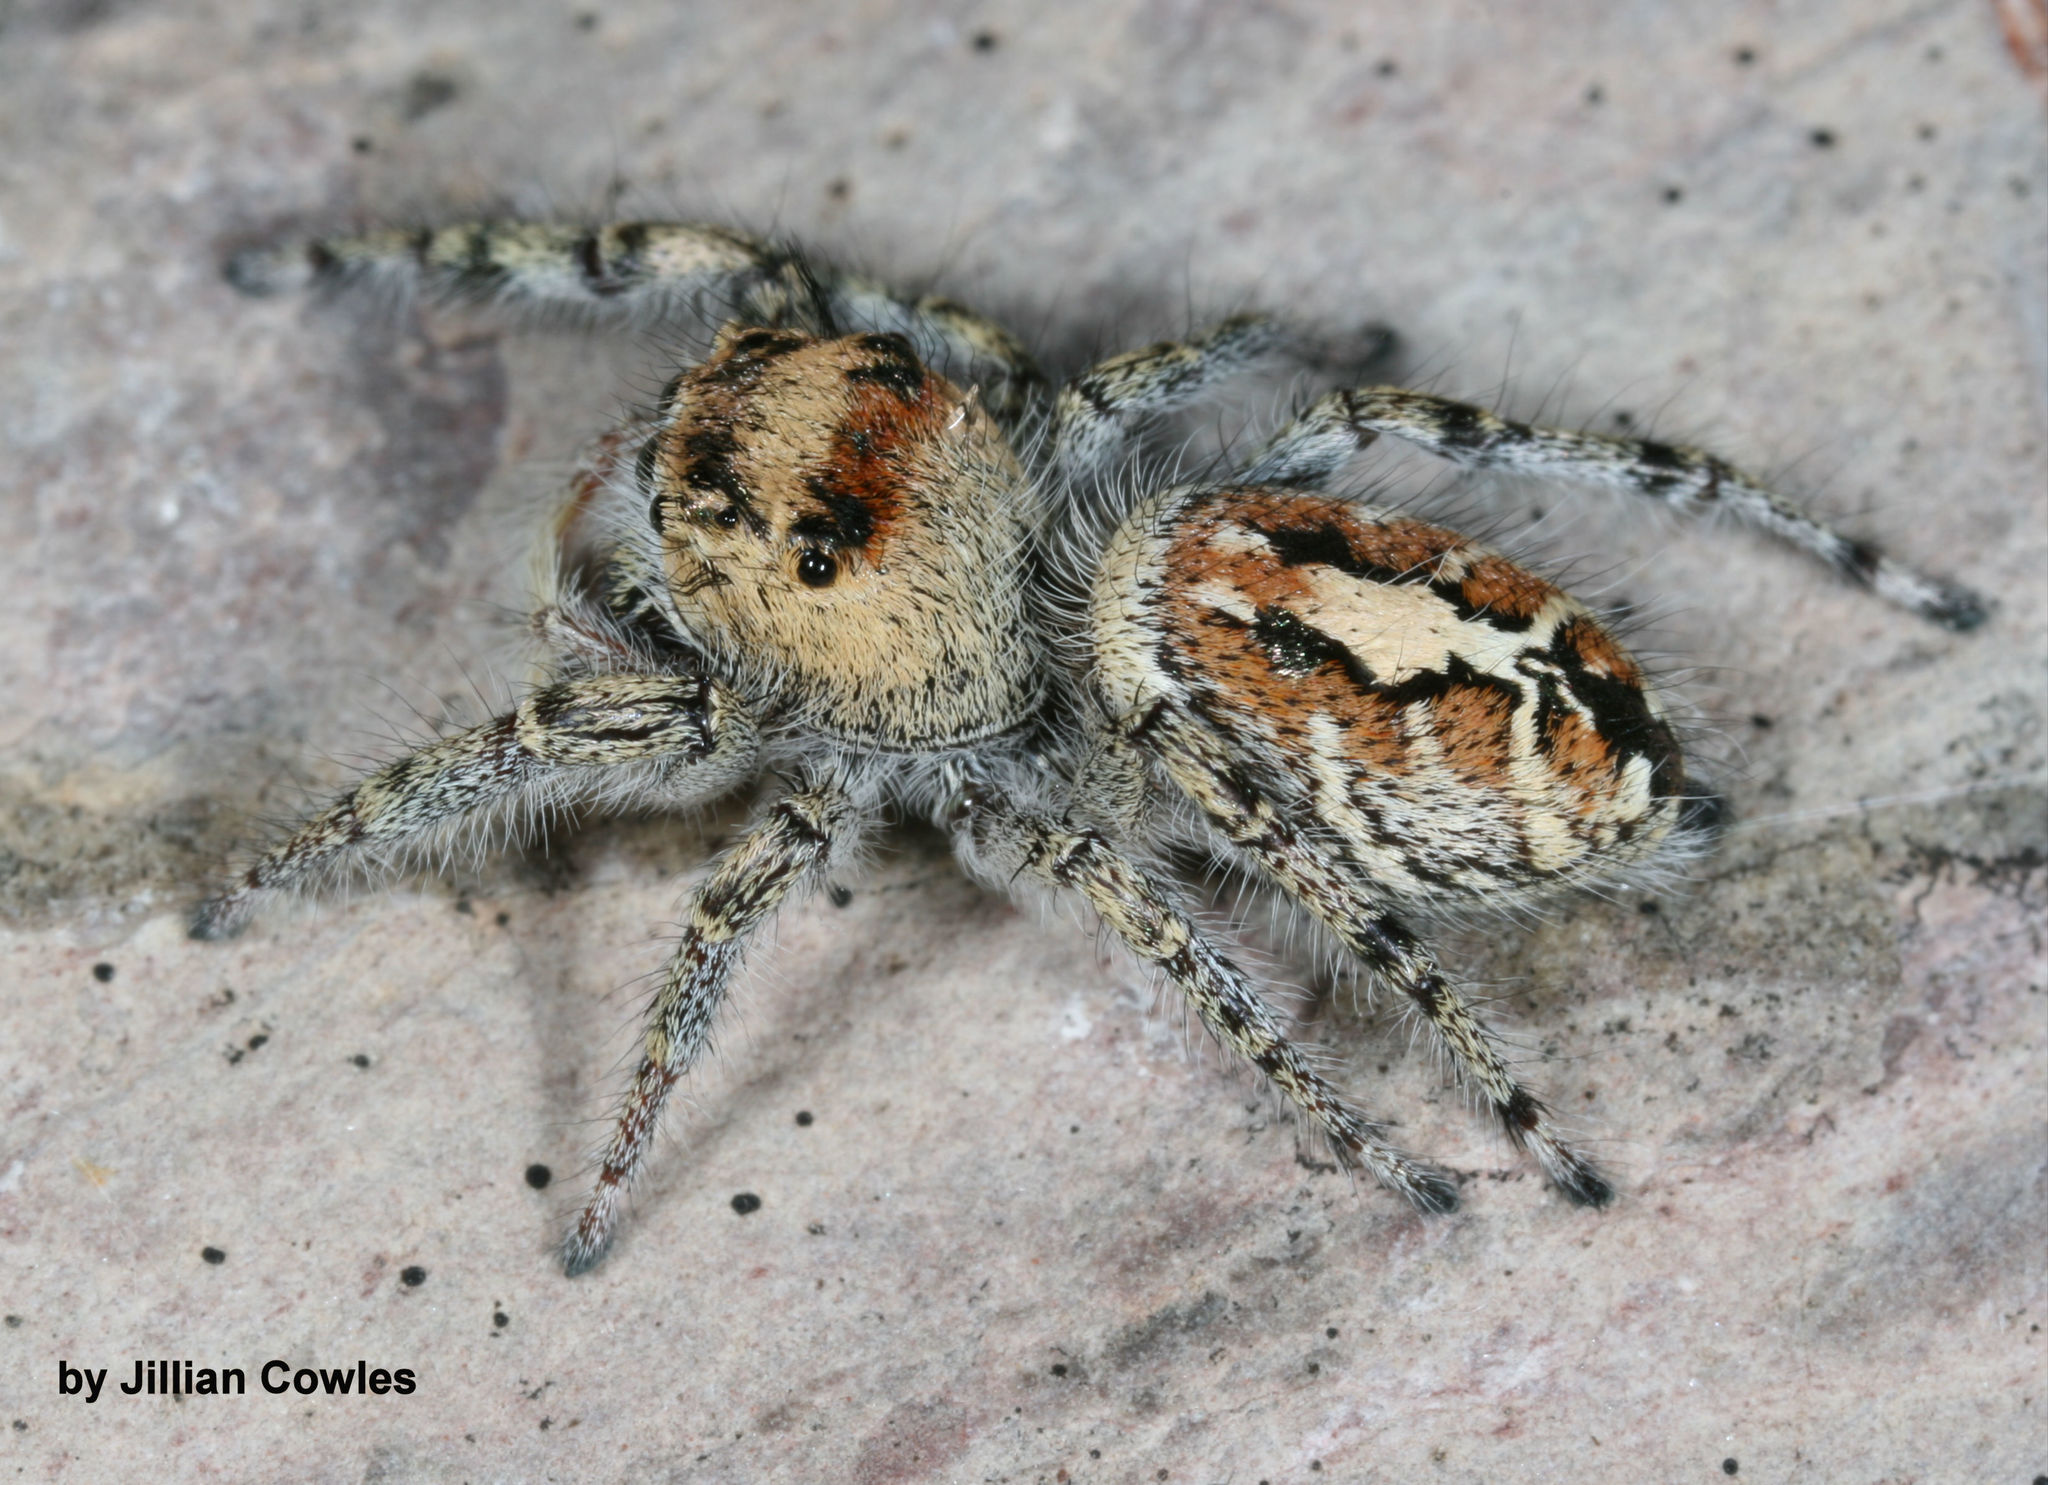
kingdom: Animalia
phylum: Arthropoda
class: Arachnida
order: Araneae
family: Salticidae
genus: Phidippus
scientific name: Phidippus phoenix
